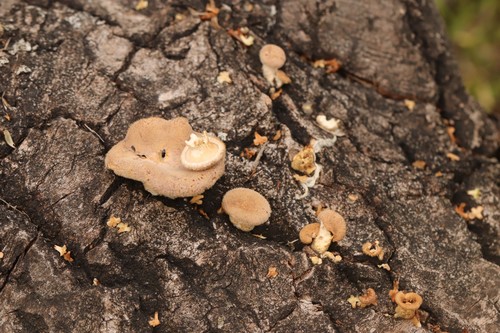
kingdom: Fungi
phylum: Basidiomycota
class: Agaricomycetes
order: Polyporales
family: Panaceae
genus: Panus
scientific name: Panus neostrigosus
